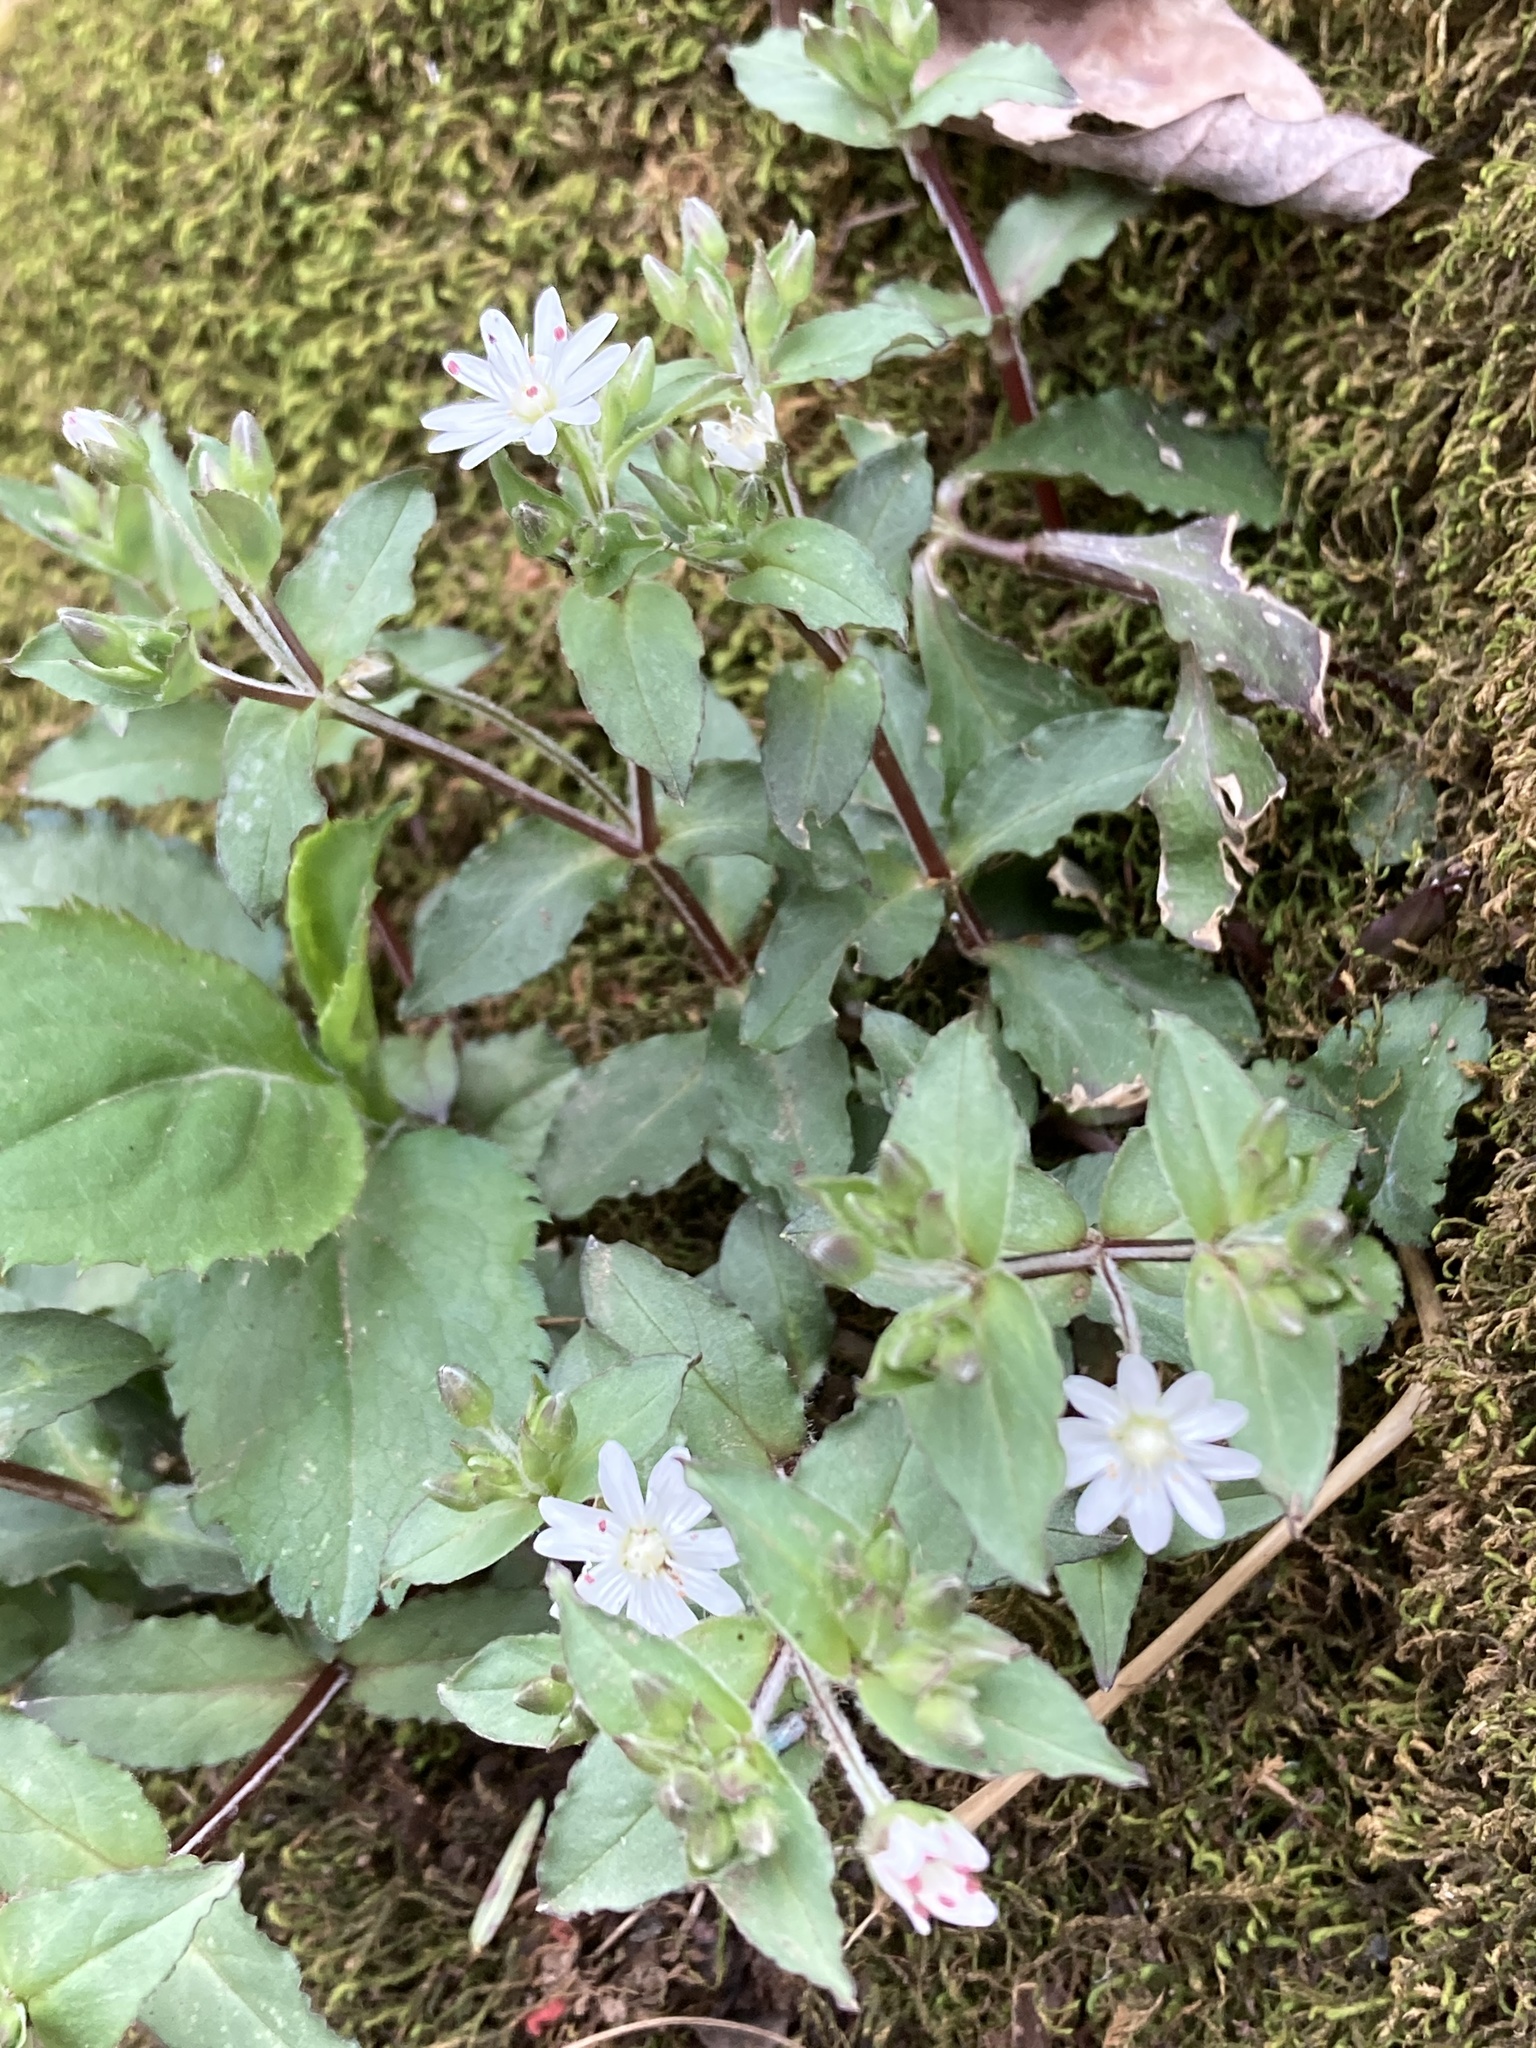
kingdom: Plantae
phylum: Tracheophyta
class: Magnoliopsida
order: Caryophyllales
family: Caryophyllaceae
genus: Stellaria
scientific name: Stellaria pubera
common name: Star chickweed
